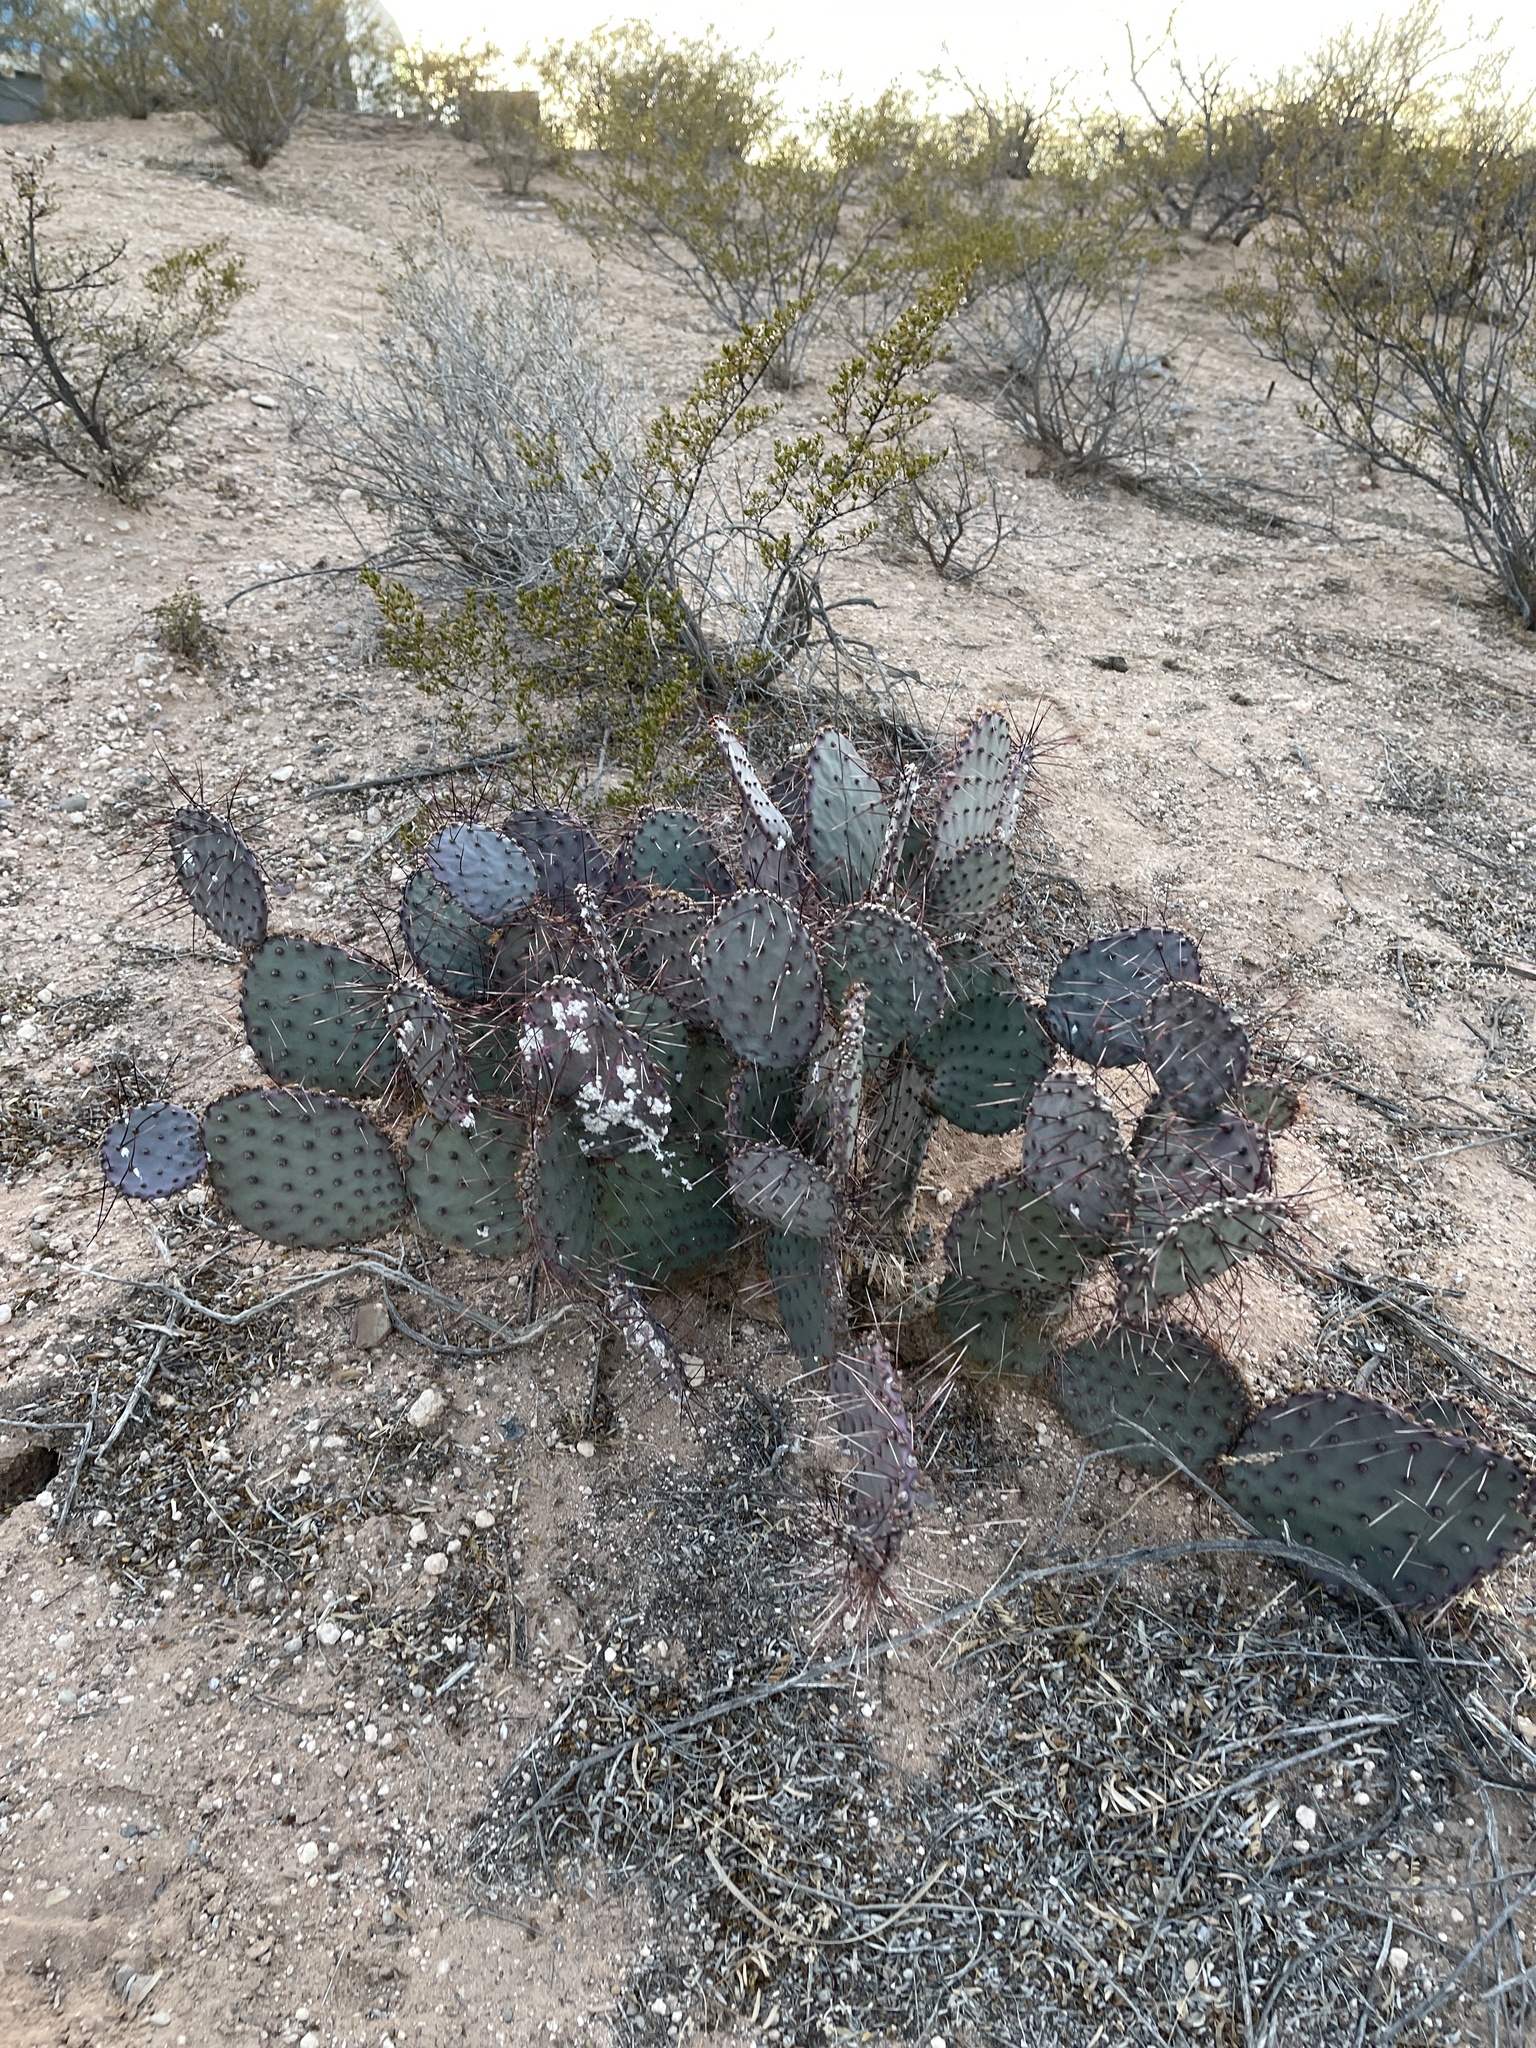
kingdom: Plantae
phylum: Tracheophyta
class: Magnoliopsida
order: Caryophyllales
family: Cactaceae
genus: Opuntia
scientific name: Opuntia macrocentra
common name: Purple prickly-pear
